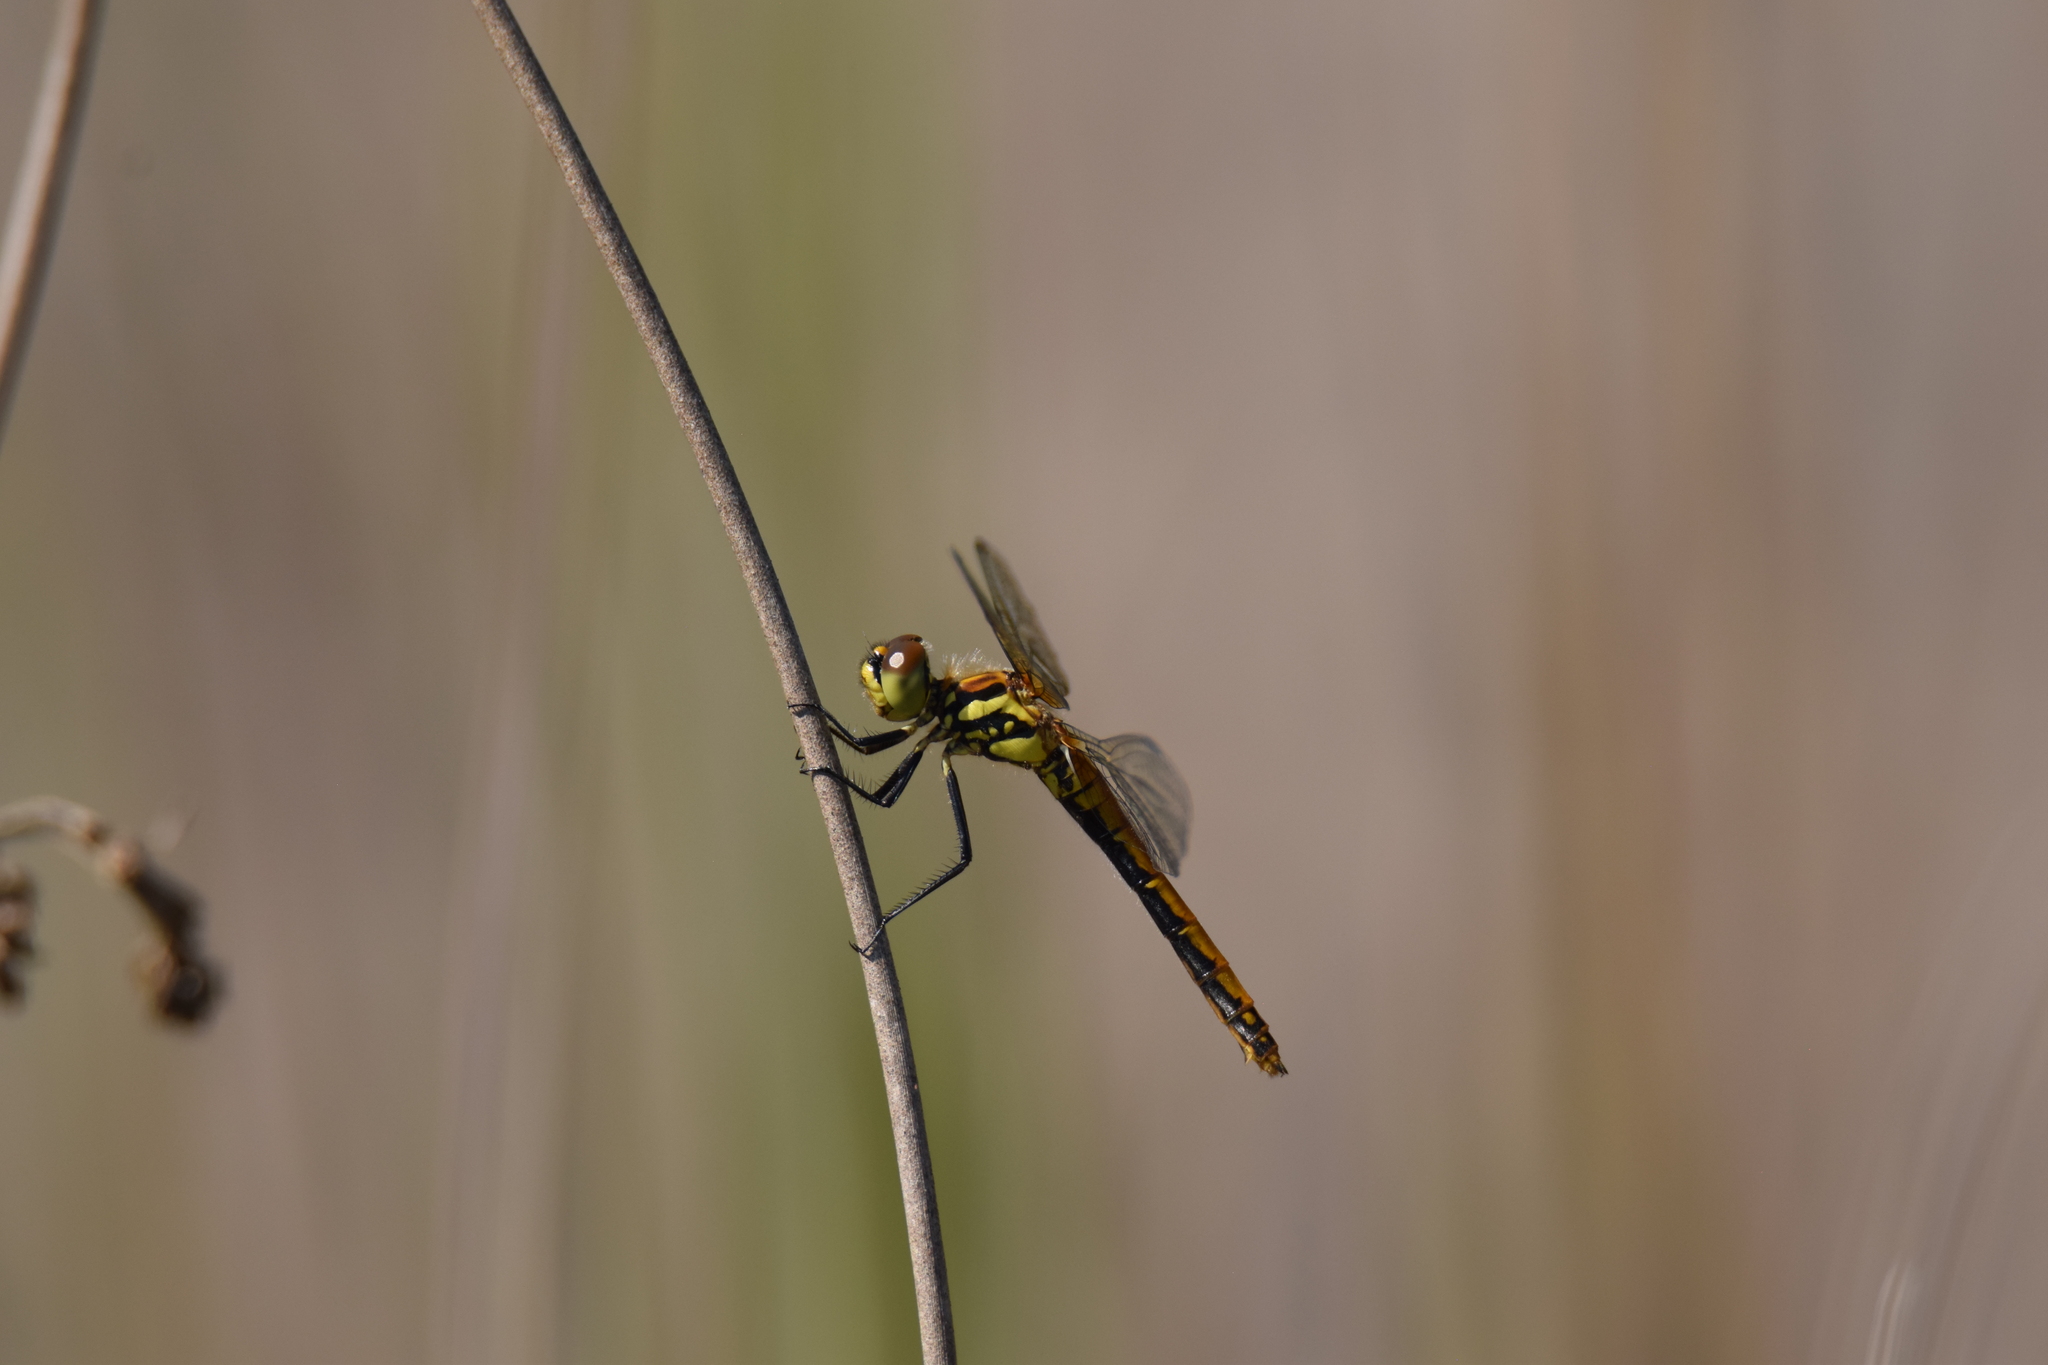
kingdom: Animalia
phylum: Arthropoda
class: Insecta
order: Odonata
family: Libellulidae
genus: Sympetrum
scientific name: Sympetrum danae
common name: Black darter
